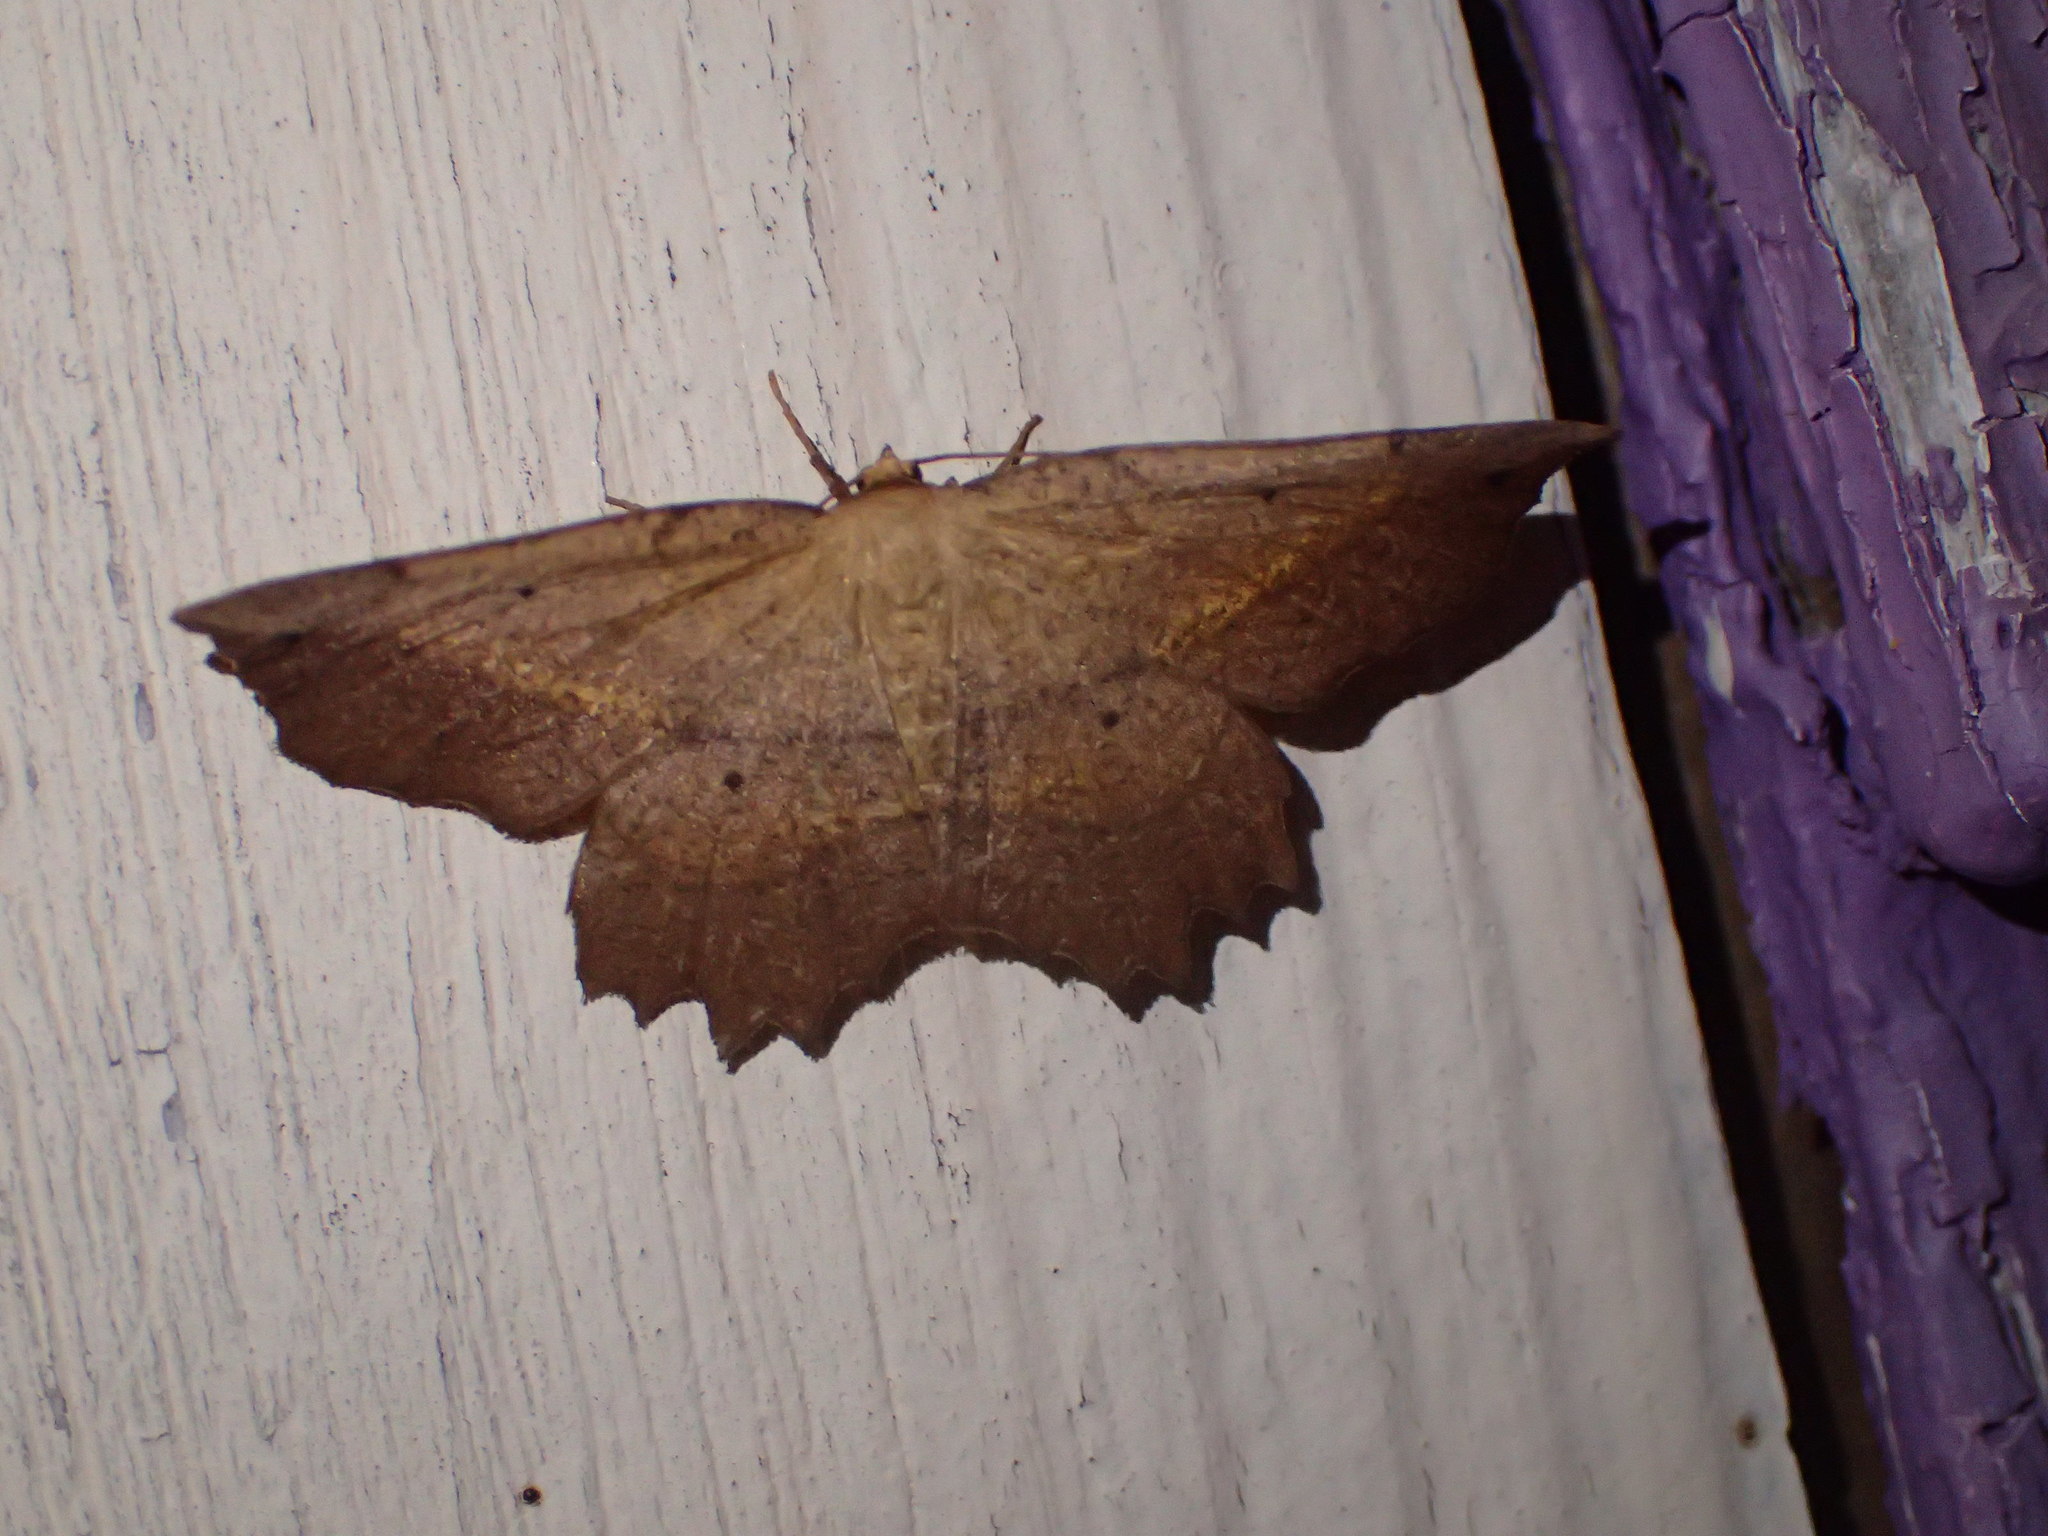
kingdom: Animalia
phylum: Arthropoda
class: Insecta
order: Lepidoptera
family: Geometridae
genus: Euchlaena
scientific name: Euchlaena muzaria
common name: Muzaria euchlaena
